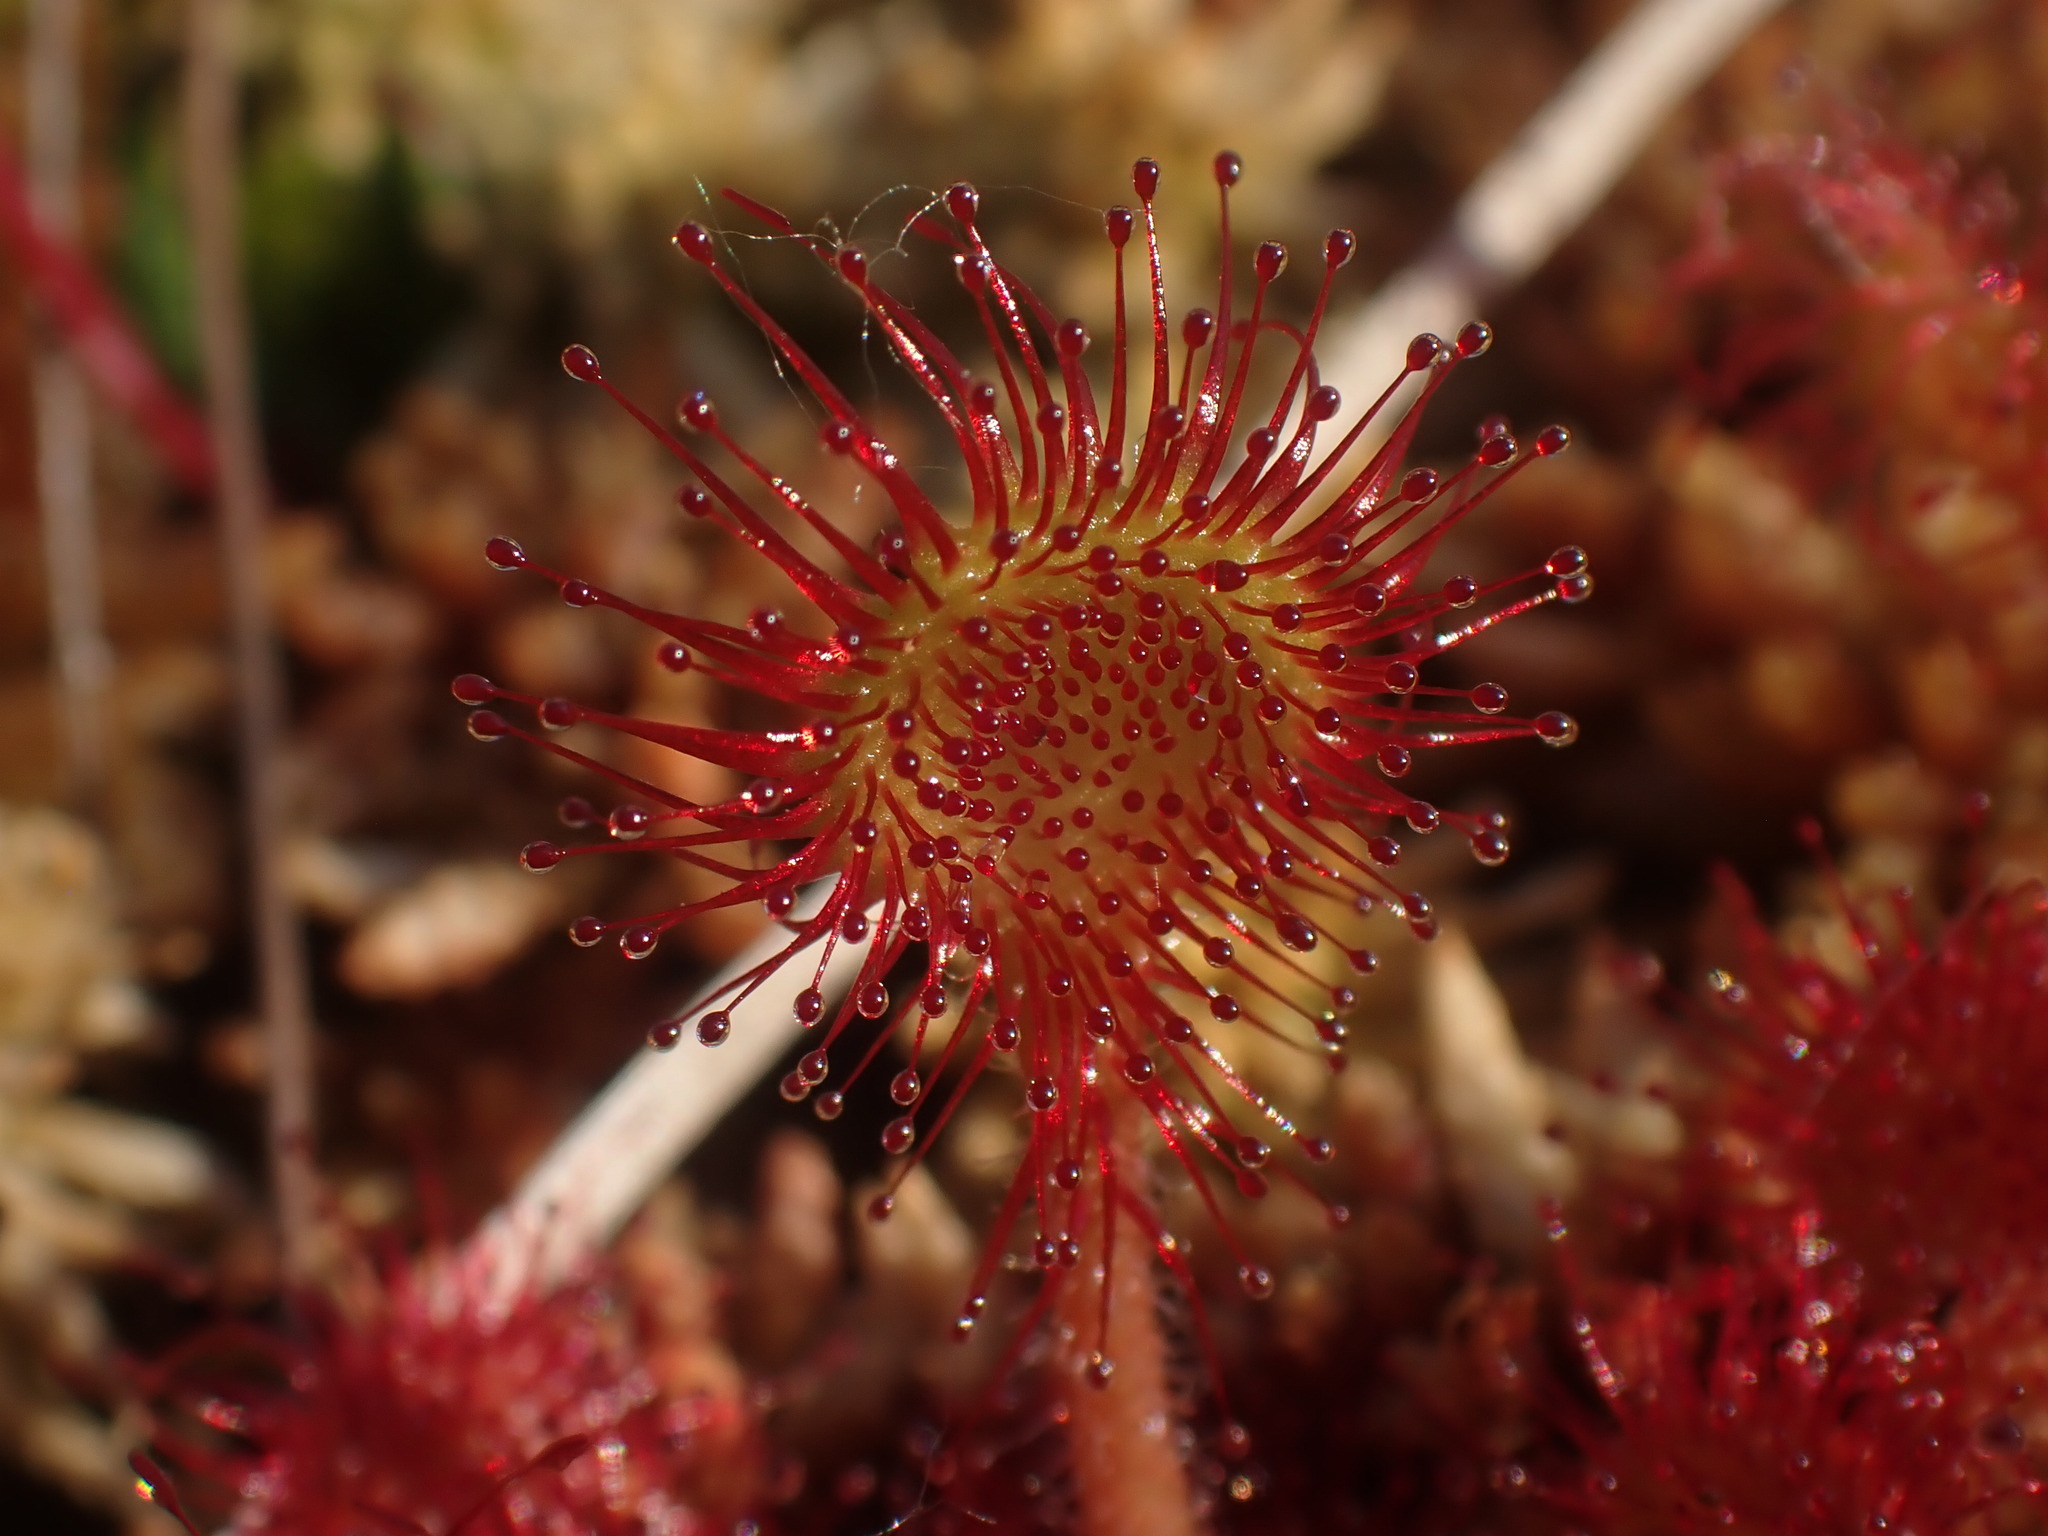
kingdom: Plantae
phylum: Tracheophyta
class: Magnoliopsida
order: Caryophyllales
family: Droseraceae
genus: Drosera
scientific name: Drosera rotundifolia
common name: Round-leaved sundew
